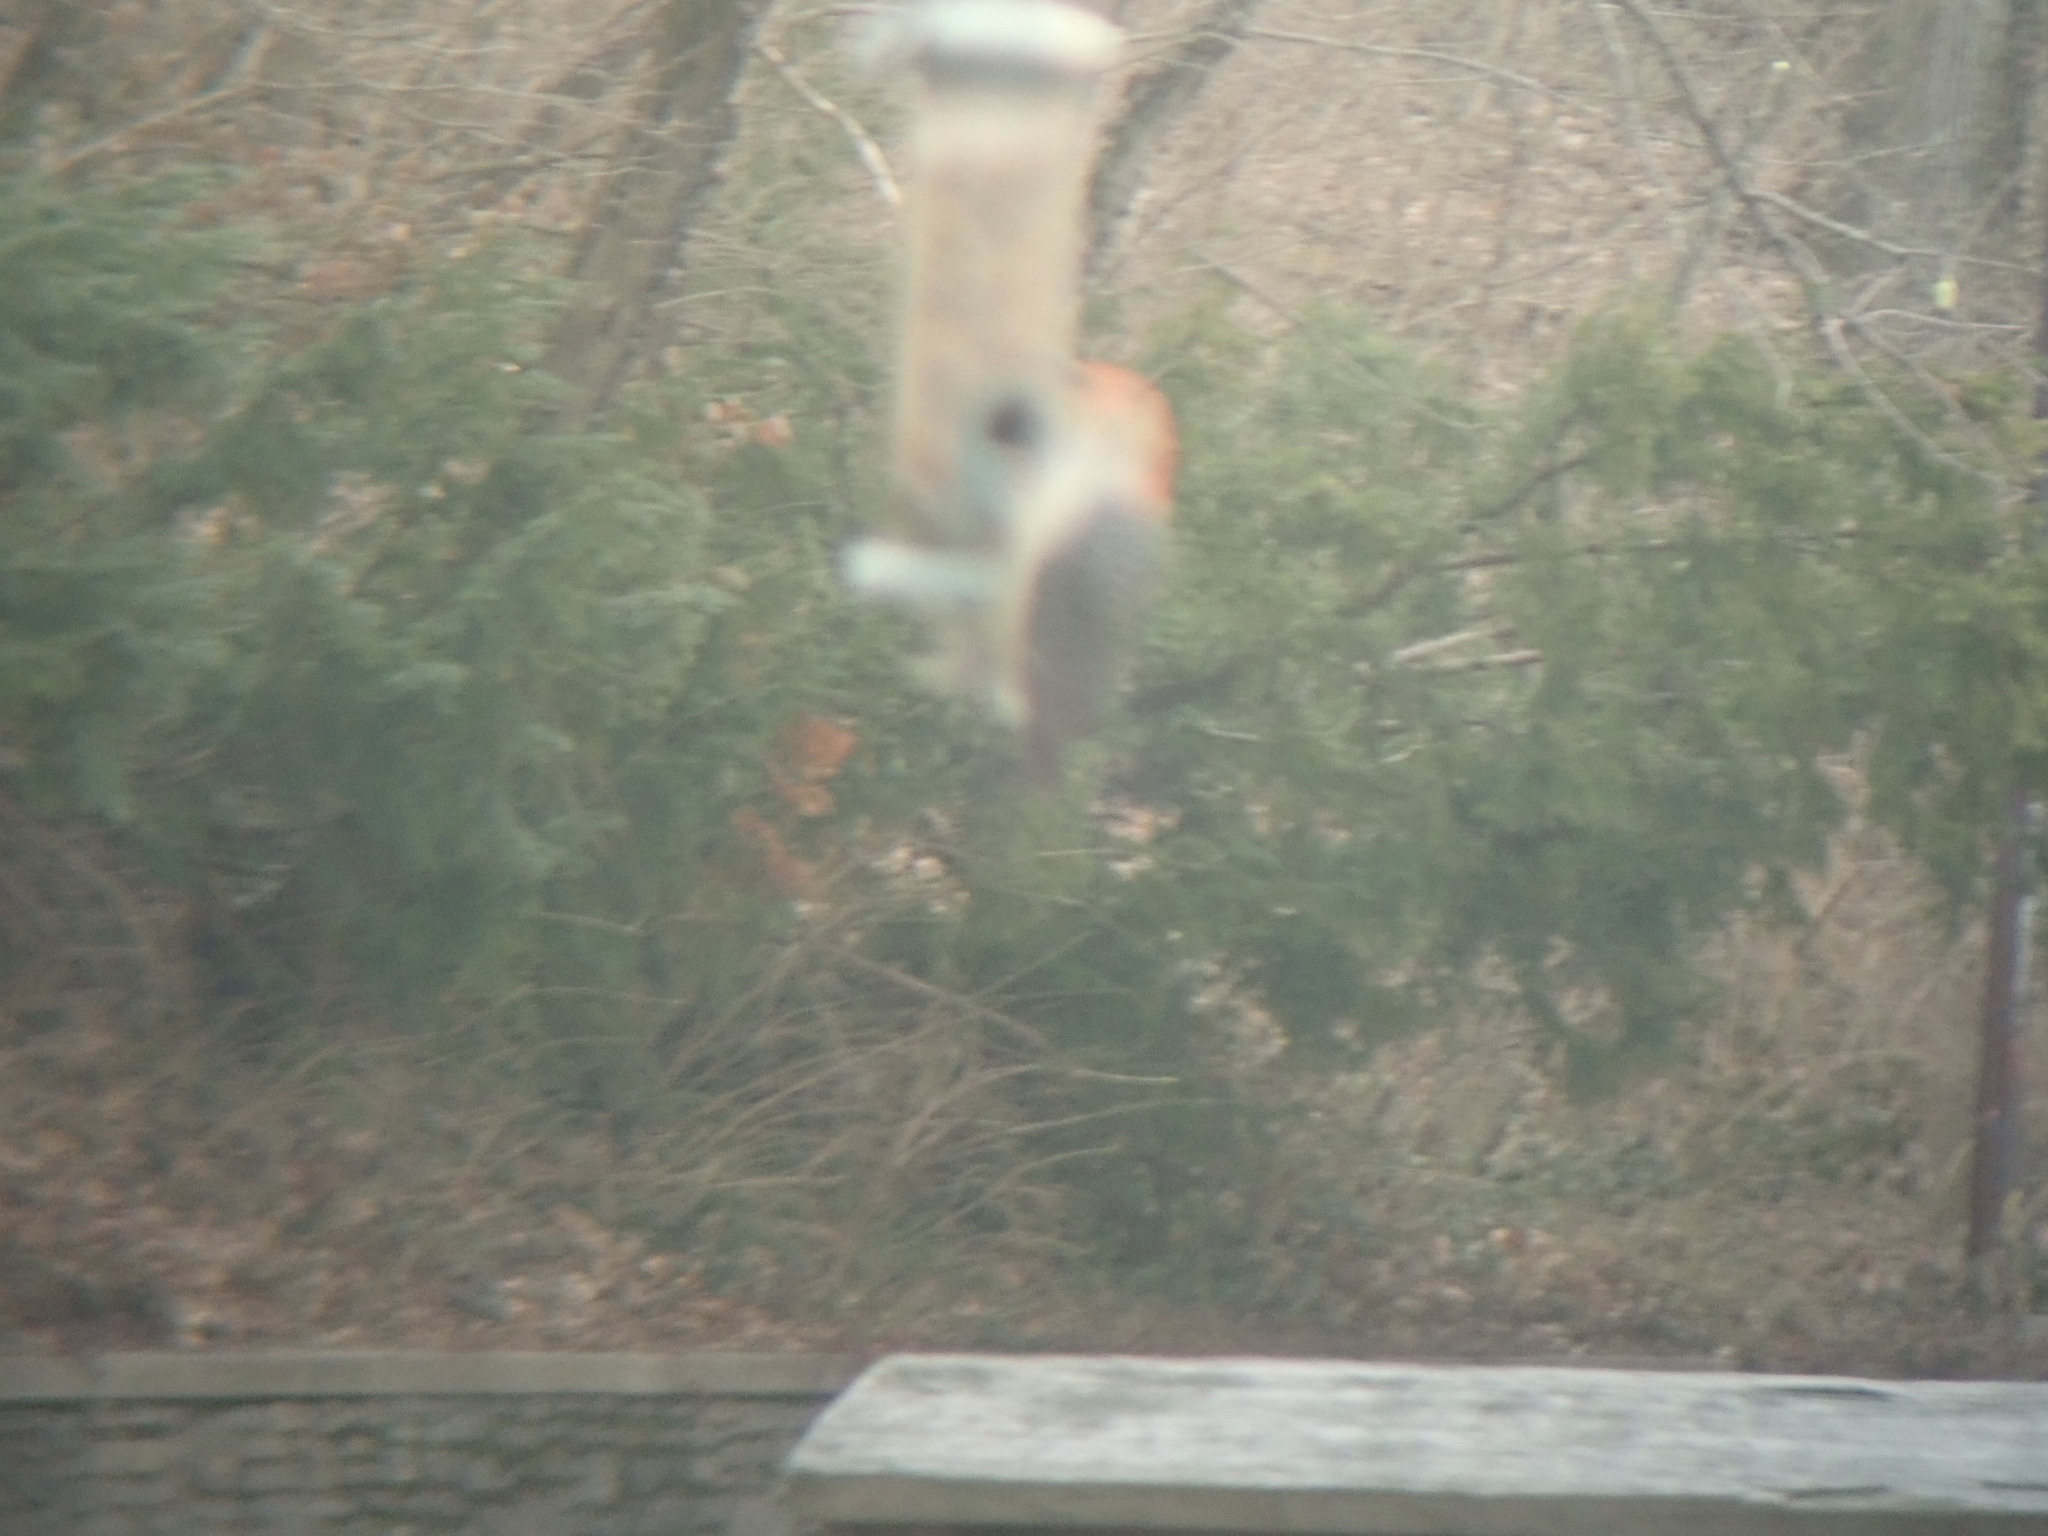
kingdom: Animalia
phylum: Chordata
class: Aves
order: Piciformes
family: Picidae
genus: Melanerpes
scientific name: Melanerpes carolinus
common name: Red-bellied woodpecker
